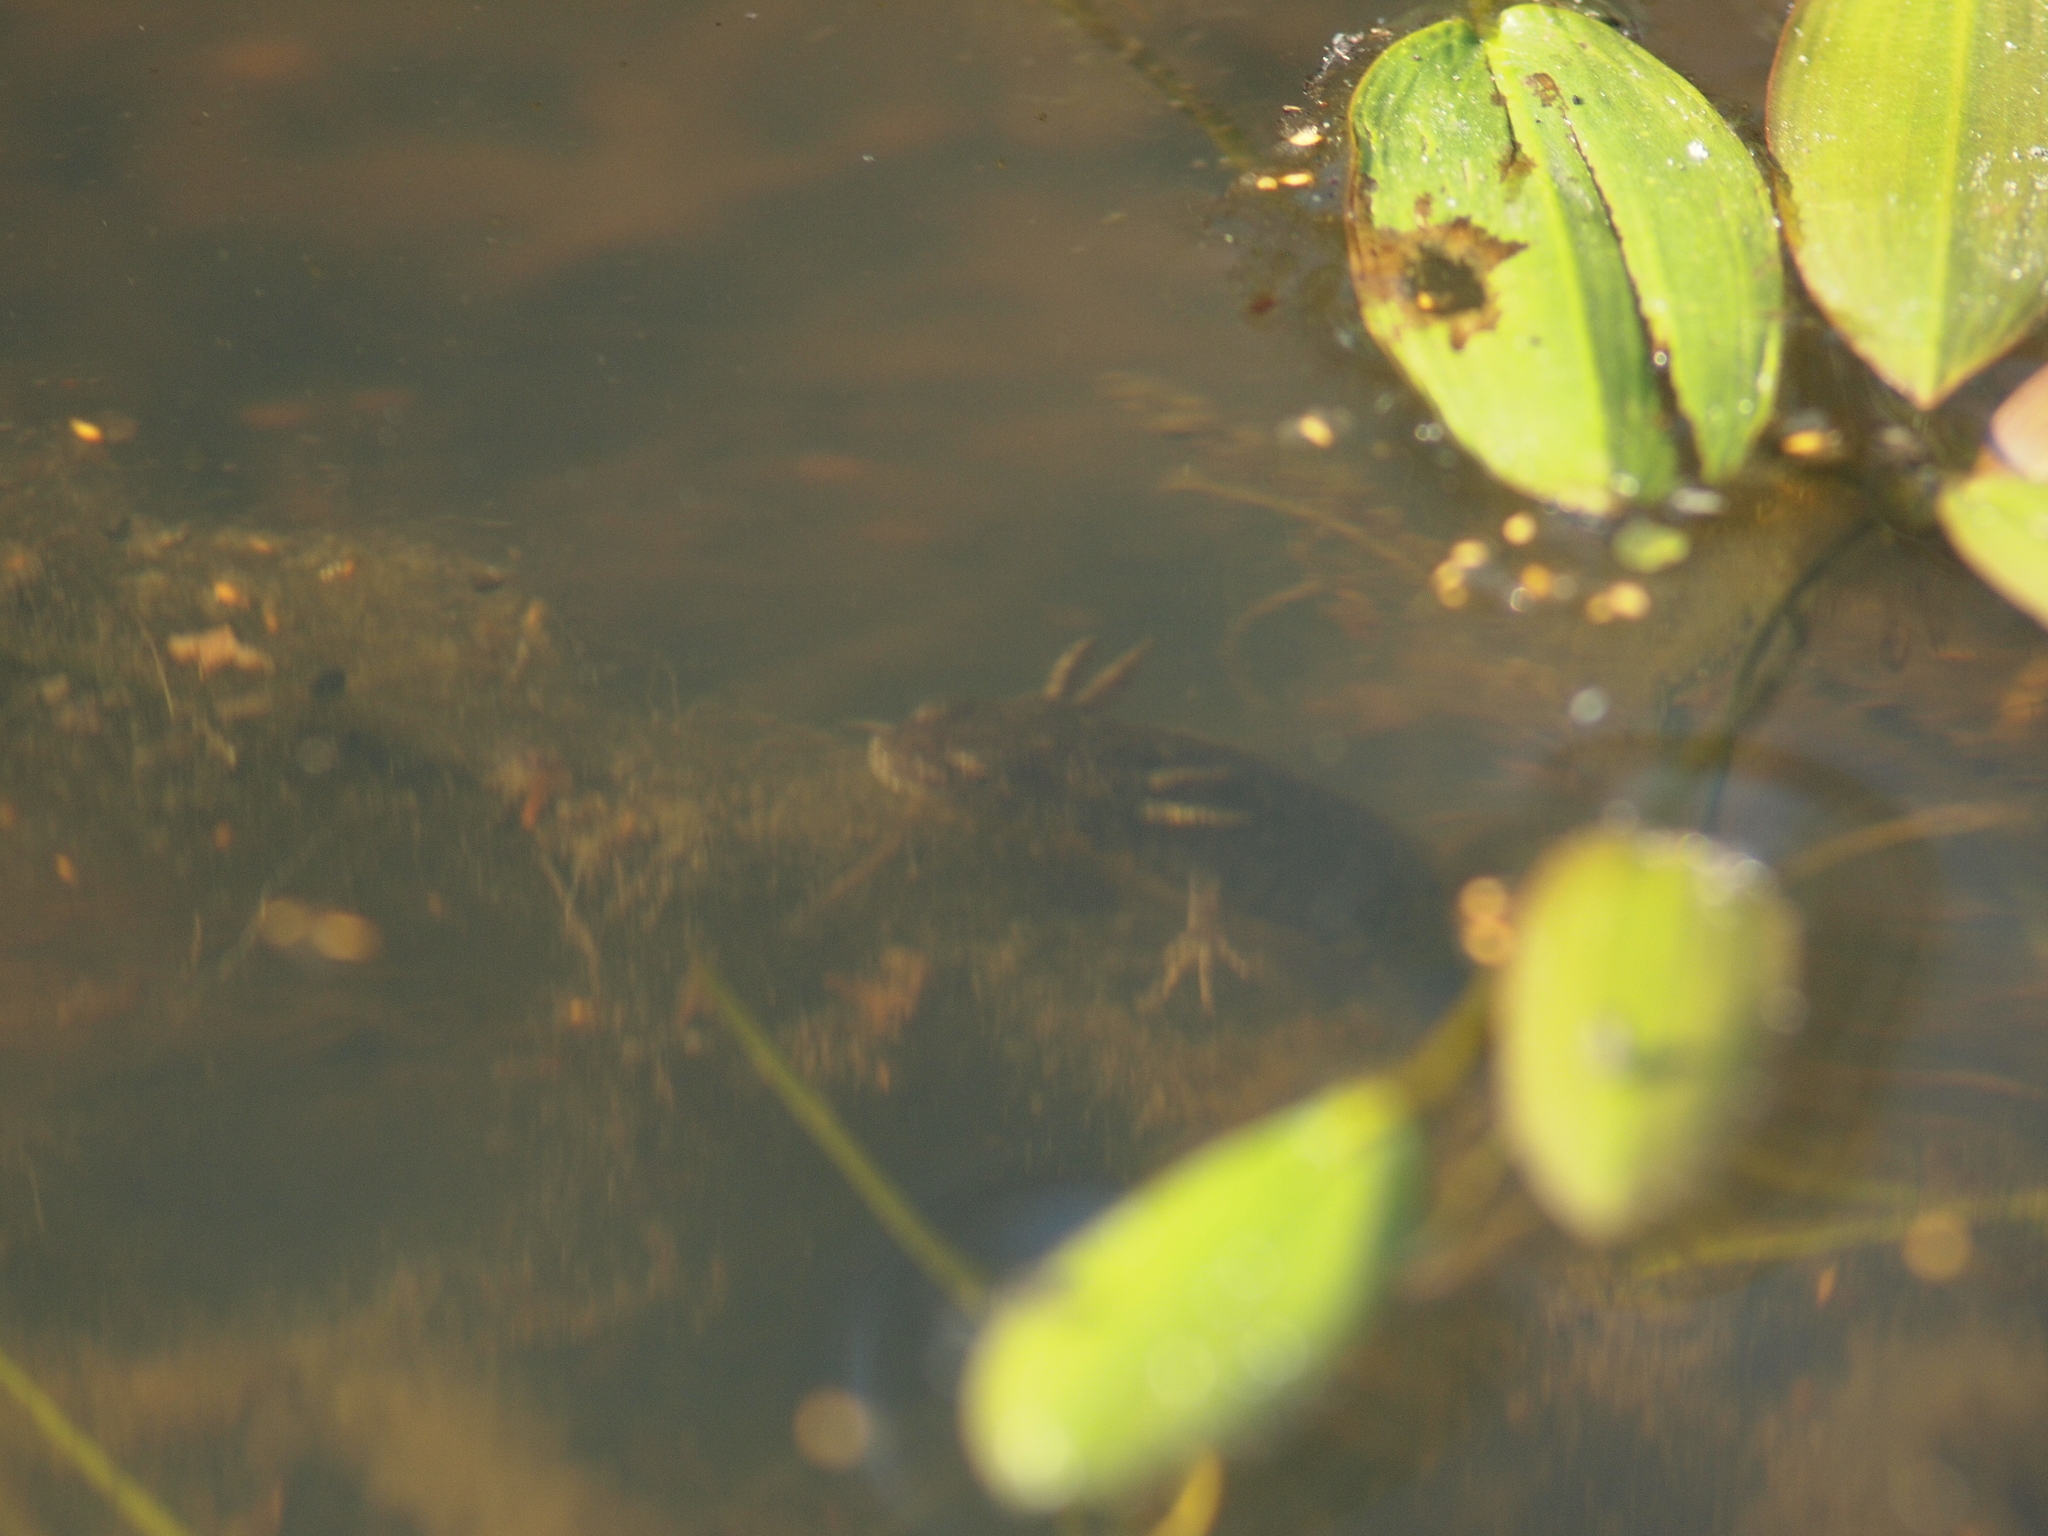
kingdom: Animalia
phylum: Chordata
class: Amphibia
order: Caudata
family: Salamandridae
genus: Triturus
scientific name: Triturus cristatus
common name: Crested newt
